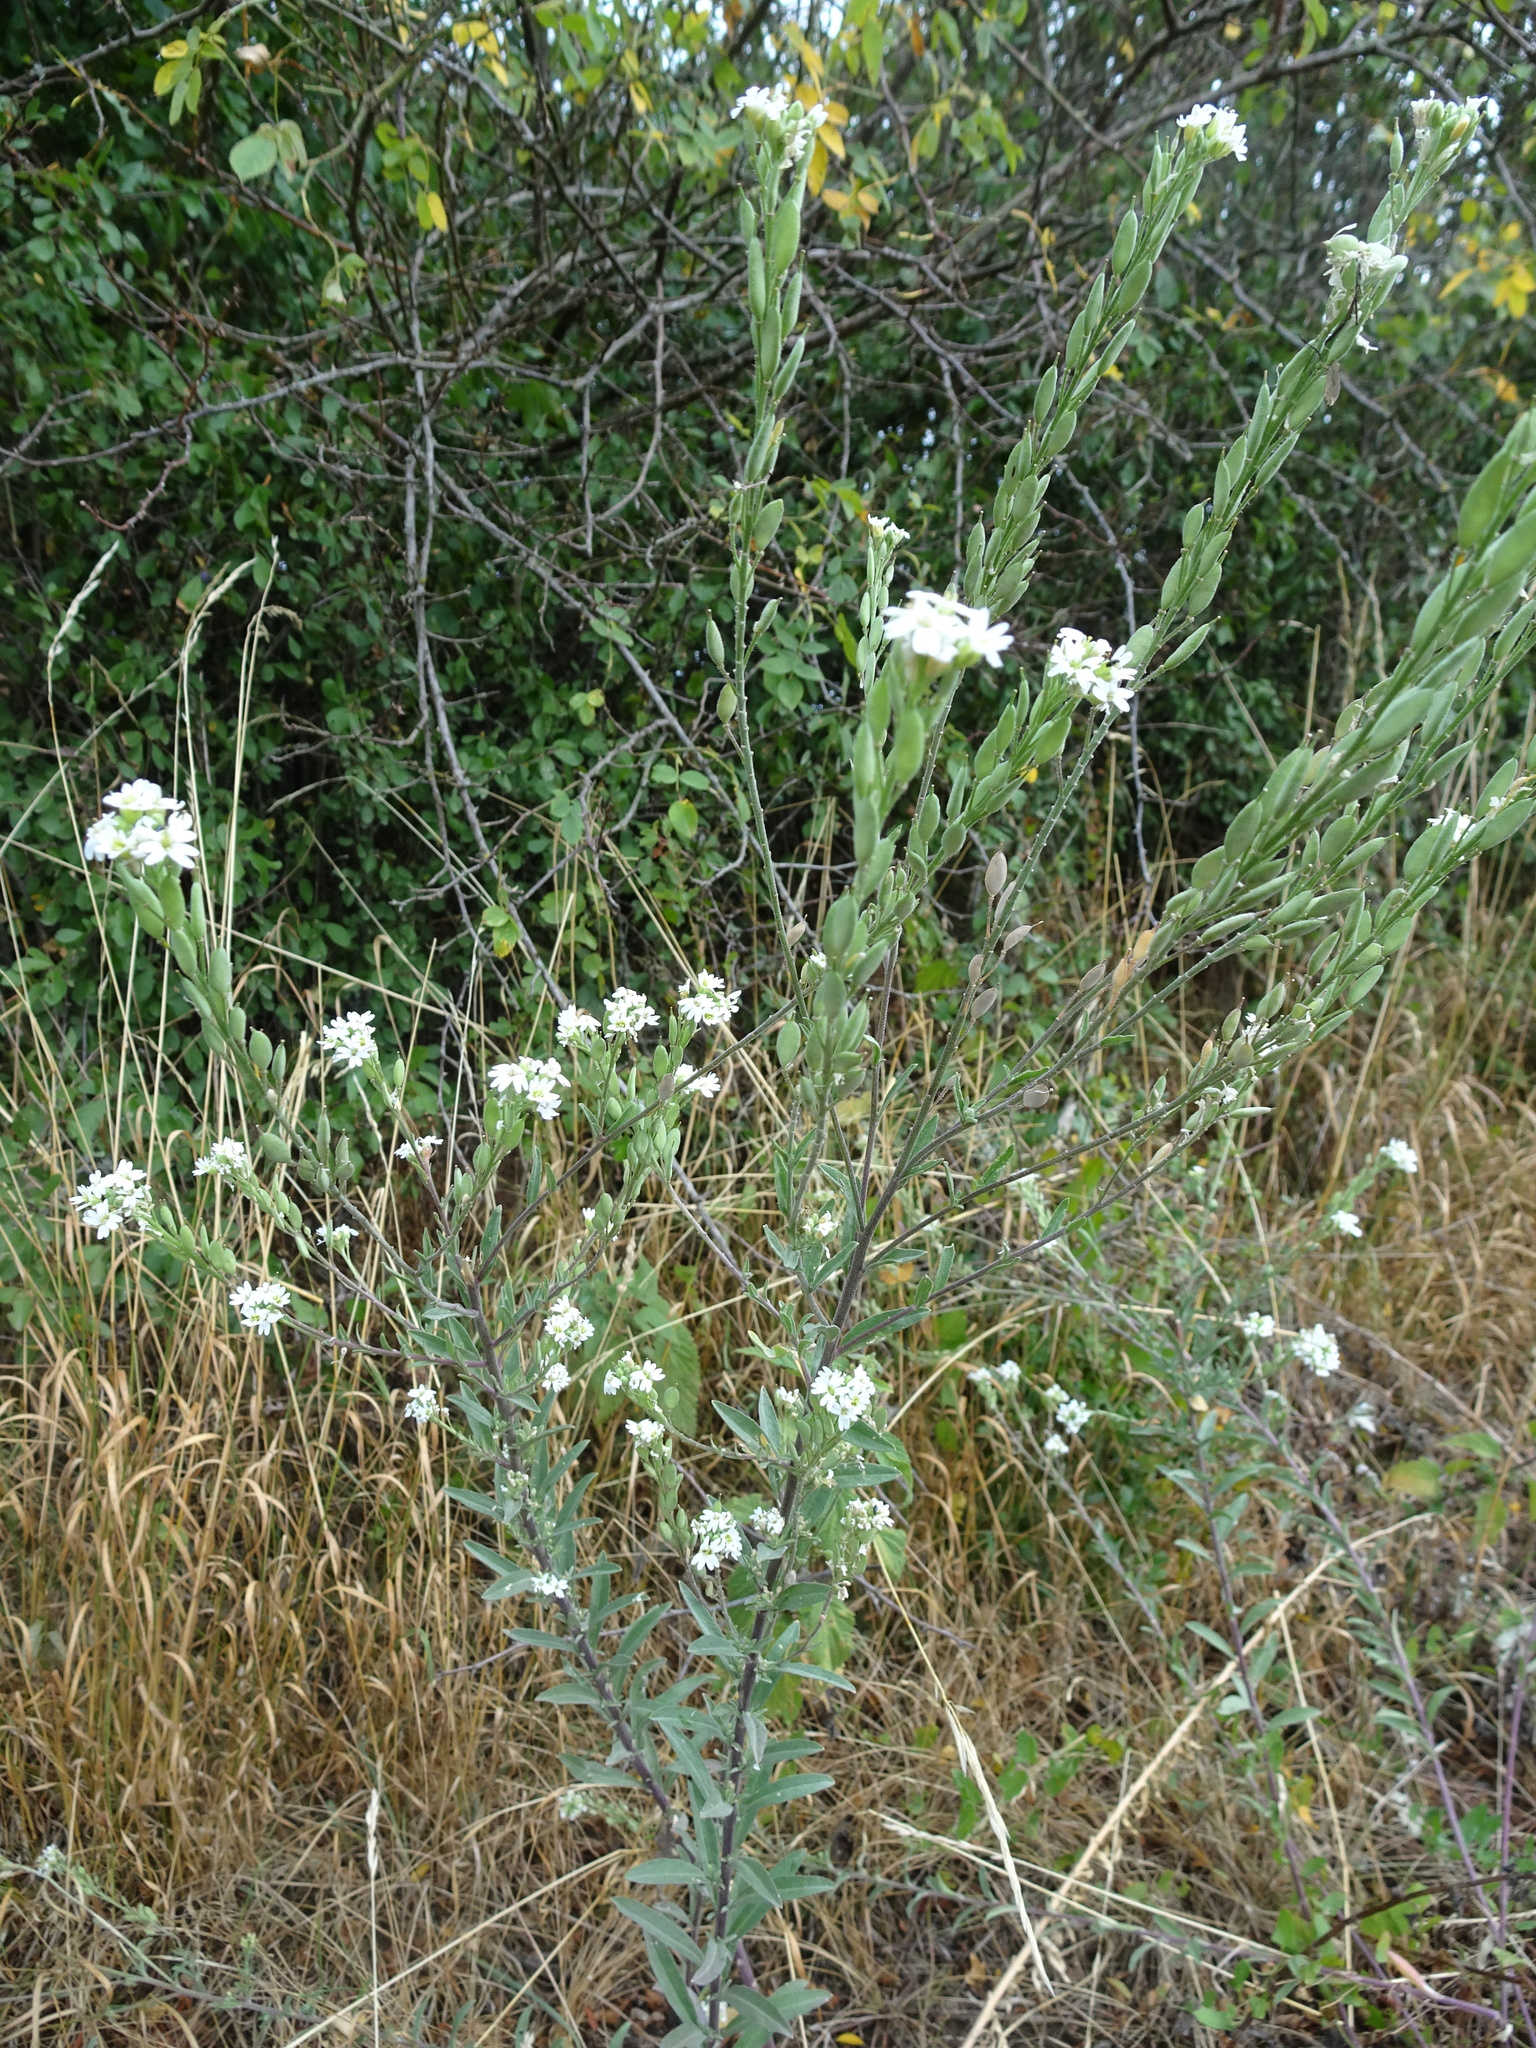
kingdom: Plantae
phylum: Tracheophyta
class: Magnoliopsida
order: Brassicales
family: Brassicaceae
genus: Berteroa
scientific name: Berteroa incana
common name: Hoary alison
